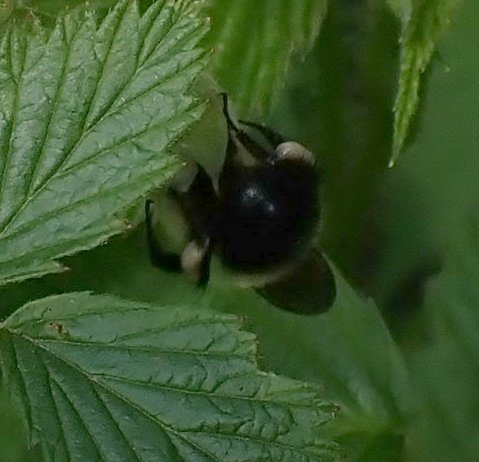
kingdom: Animalia
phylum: Arthropoda
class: Insecta
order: Hymenoptera
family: Apidae
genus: Pyrobombus
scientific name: Pyrobombus
